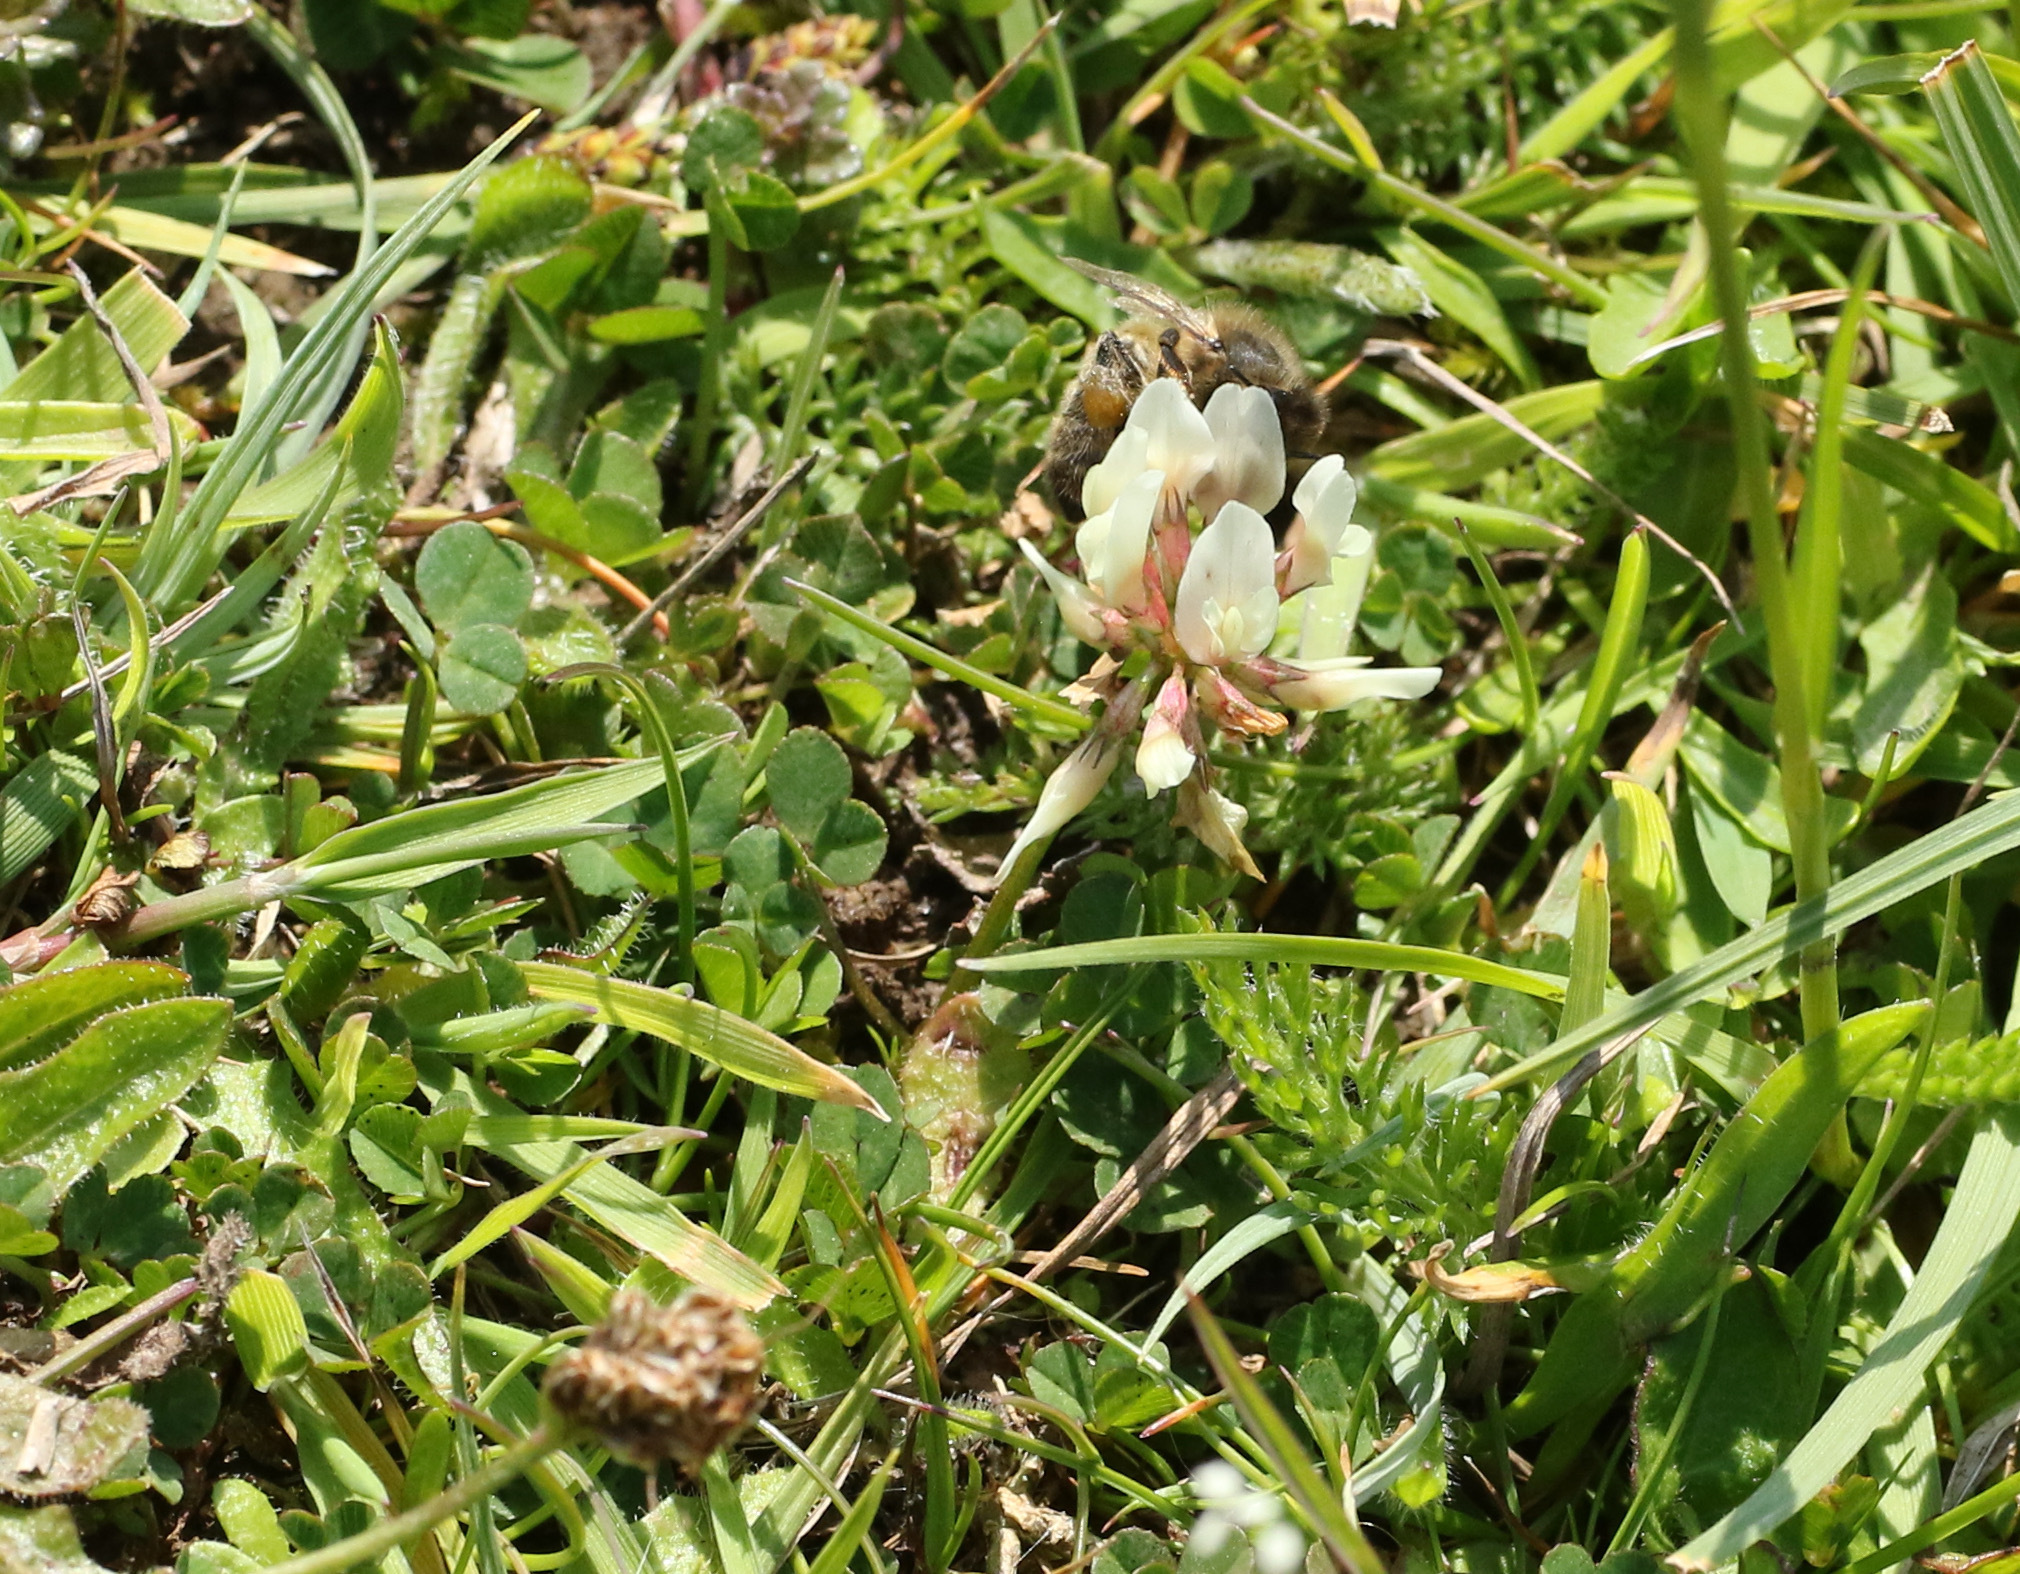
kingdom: Plantae
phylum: Tracheophyta
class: Magnoliopsida
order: Fabales
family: Fabaceae
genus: Trifolium
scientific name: Trifolium repens
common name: White clover
